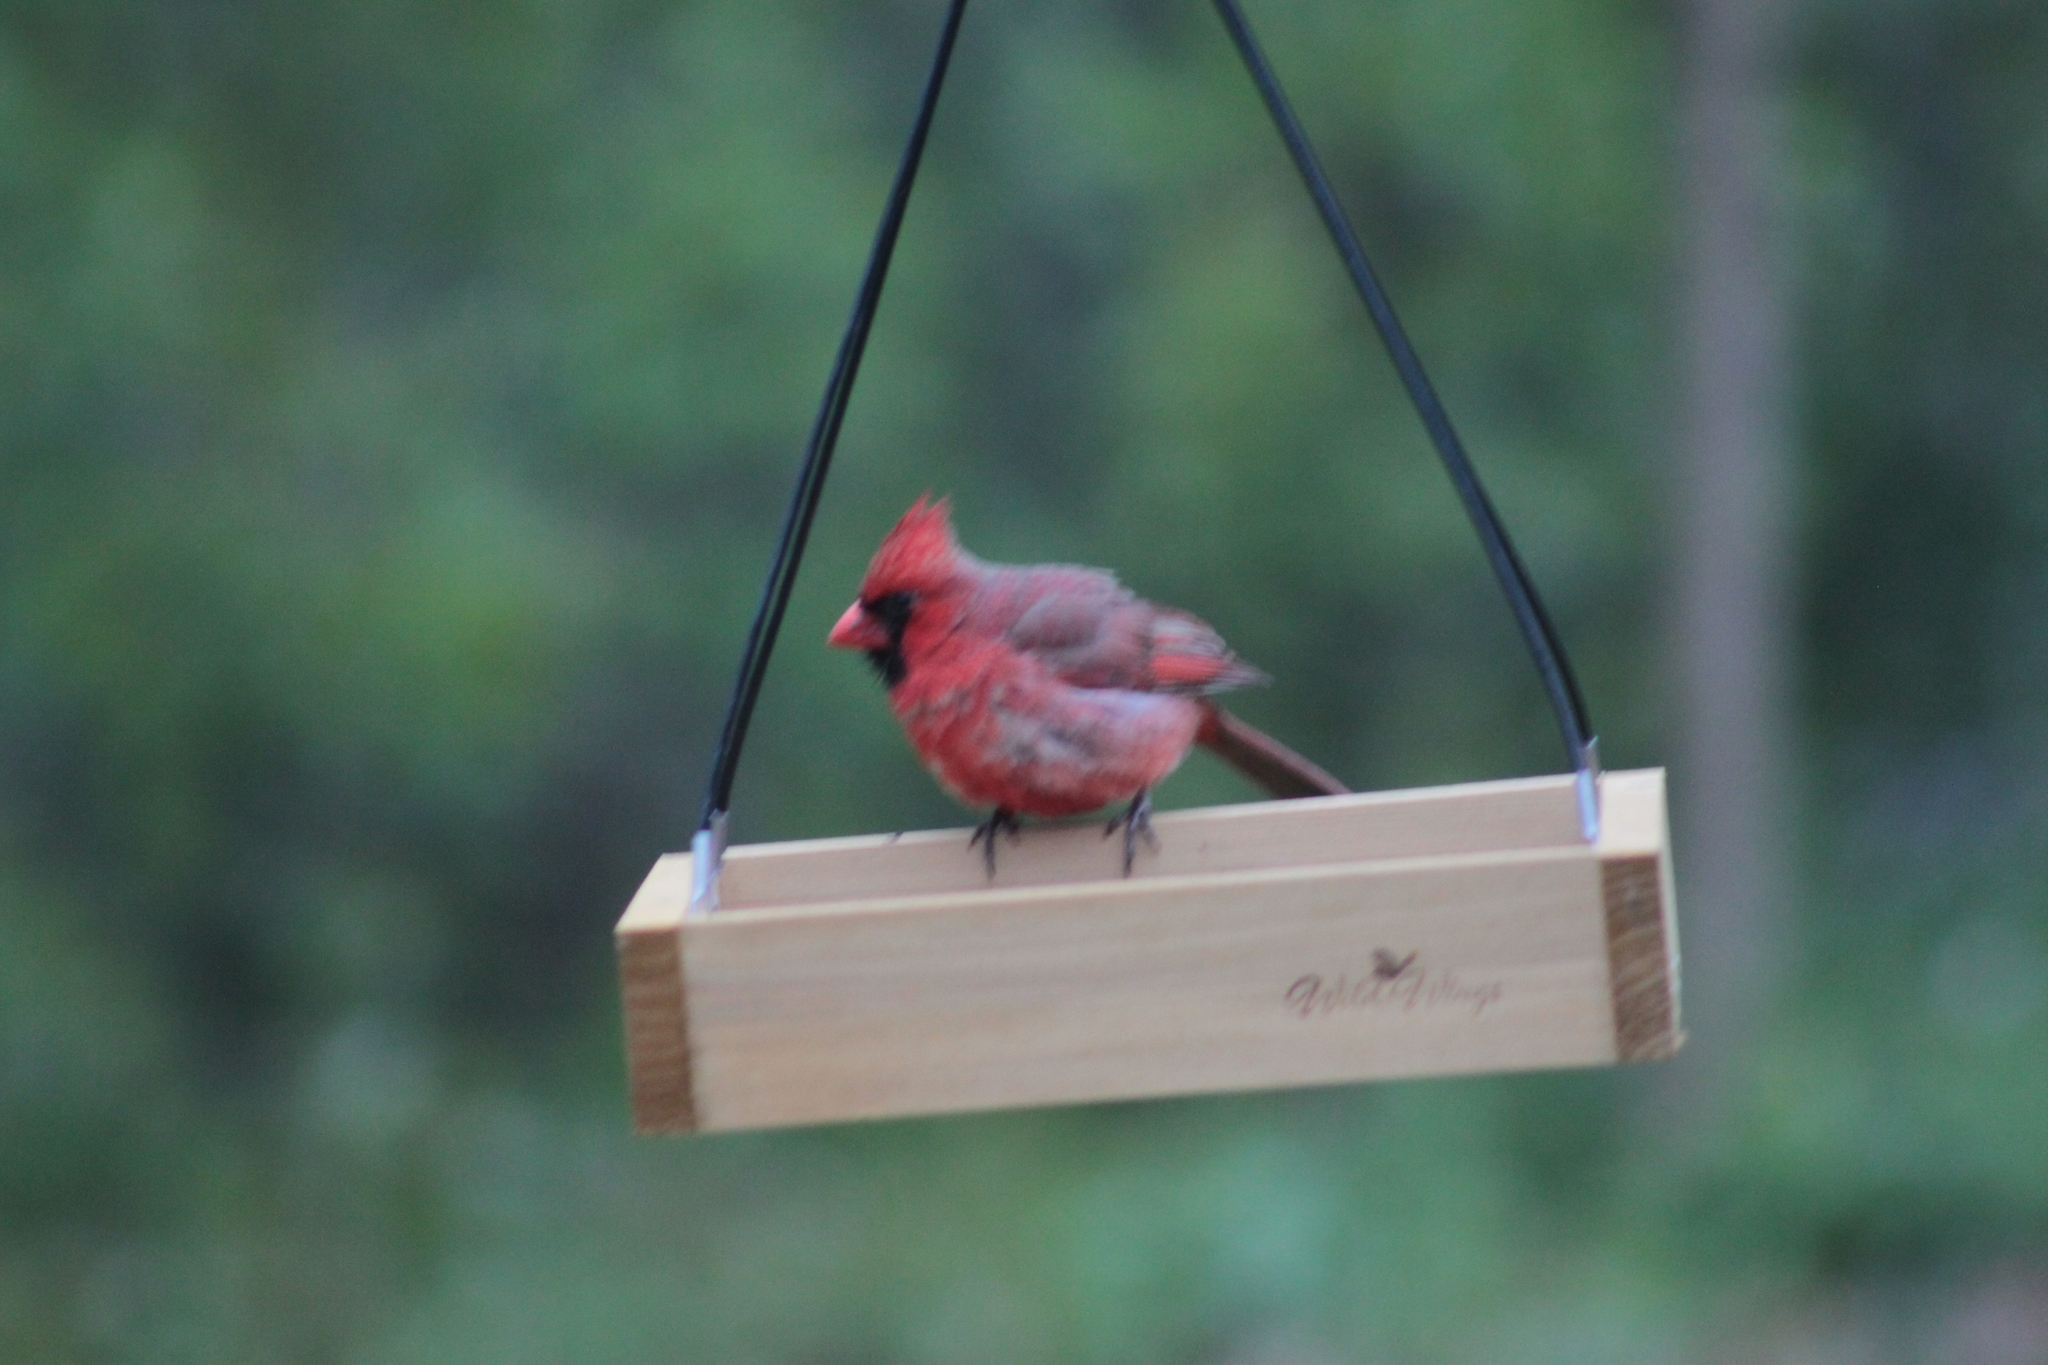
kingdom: Animalia
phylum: Chordata
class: Aves
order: Passeriformes
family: Cardinalidae
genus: Cardinalis
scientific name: Cardinalis cardinalis
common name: Northern cardinal
